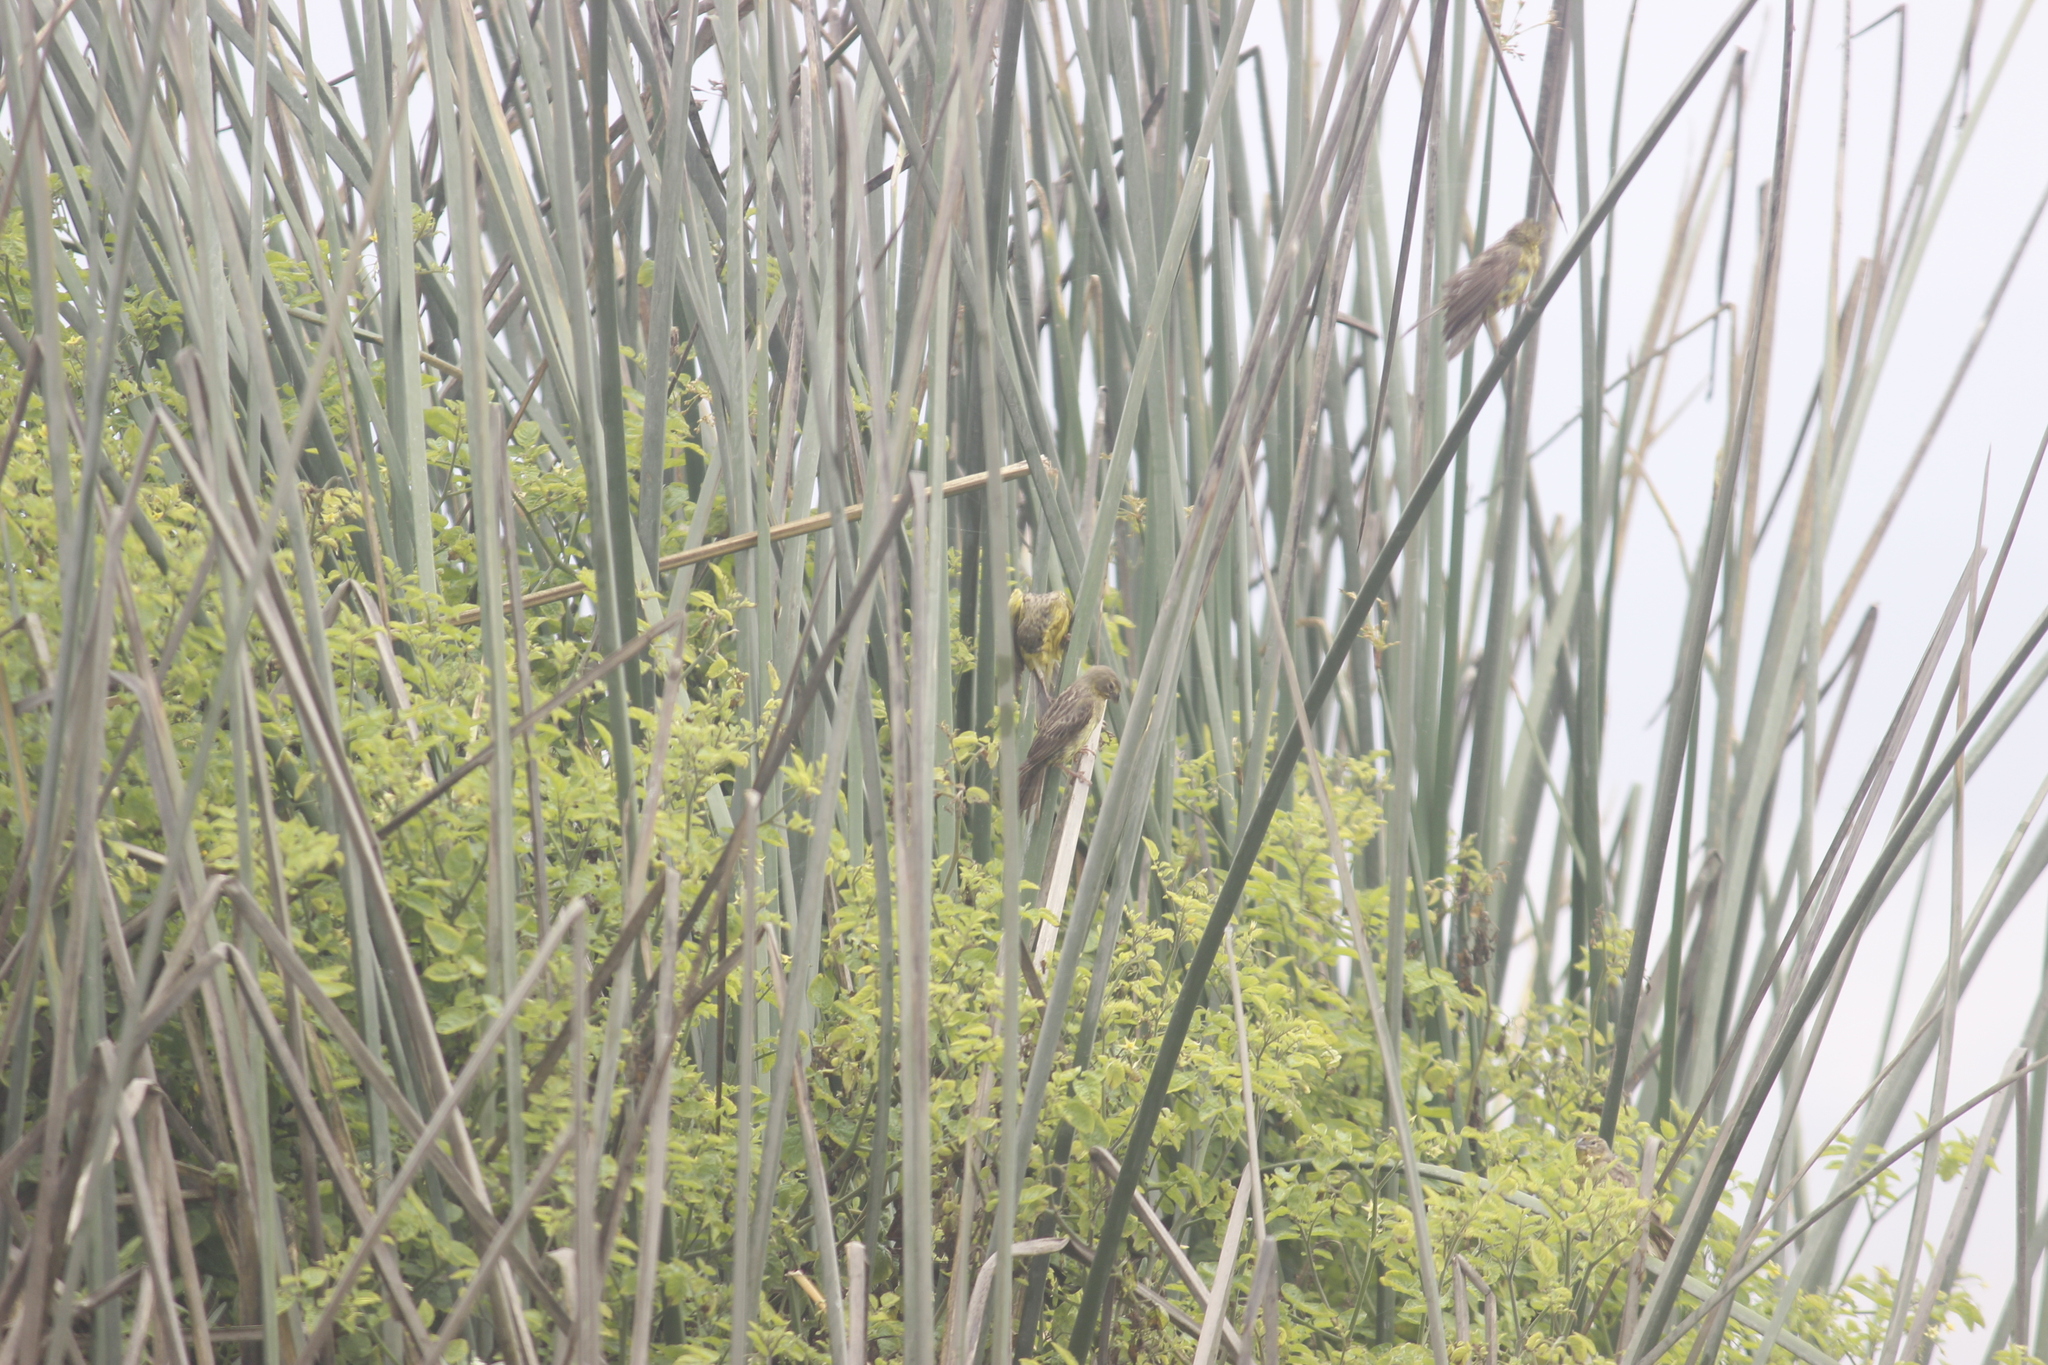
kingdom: Animalia
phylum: Chordata
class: Aves
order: Passeriformes
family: Thraupidae
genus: Sicalis
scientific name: Sicalis luteola
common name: Grassland yellow-finch
